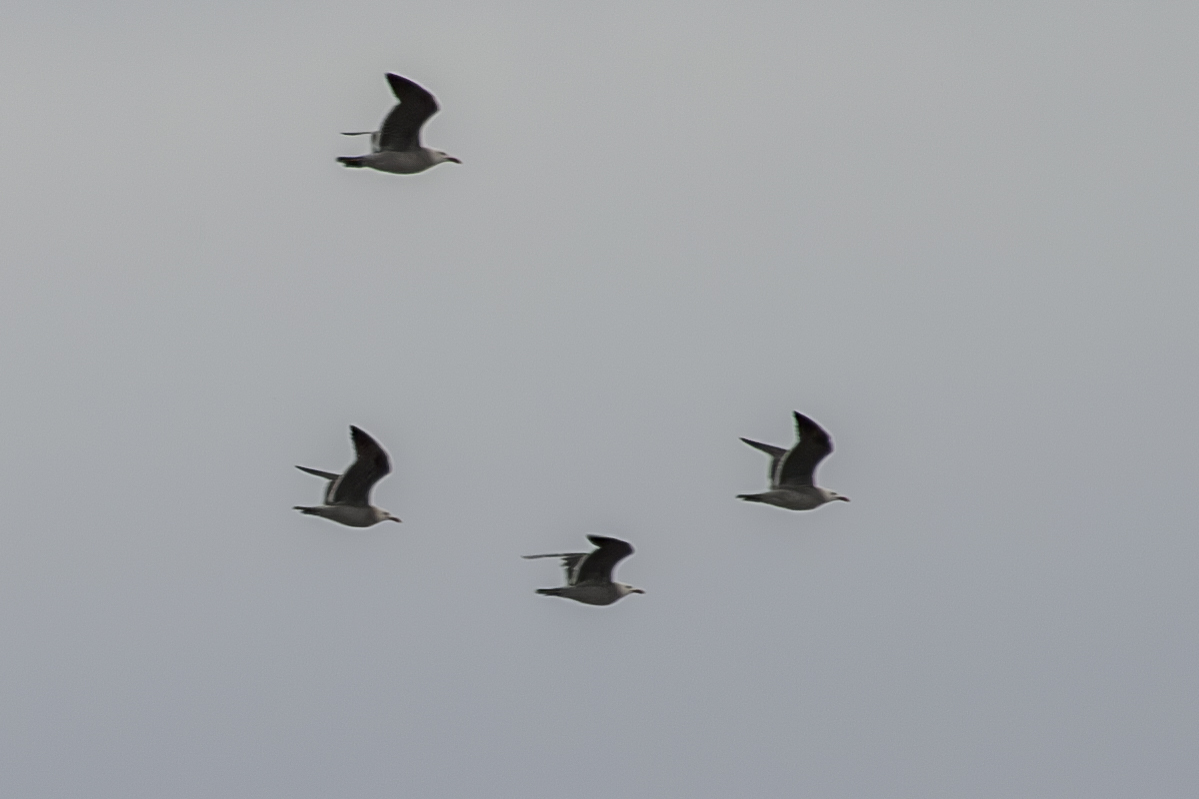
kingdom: Animalia
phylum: Chordata
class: Aves
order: Charadriiformes
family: Laridae
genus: Larus
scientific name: Larus heermanni
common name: Heermann's gull
